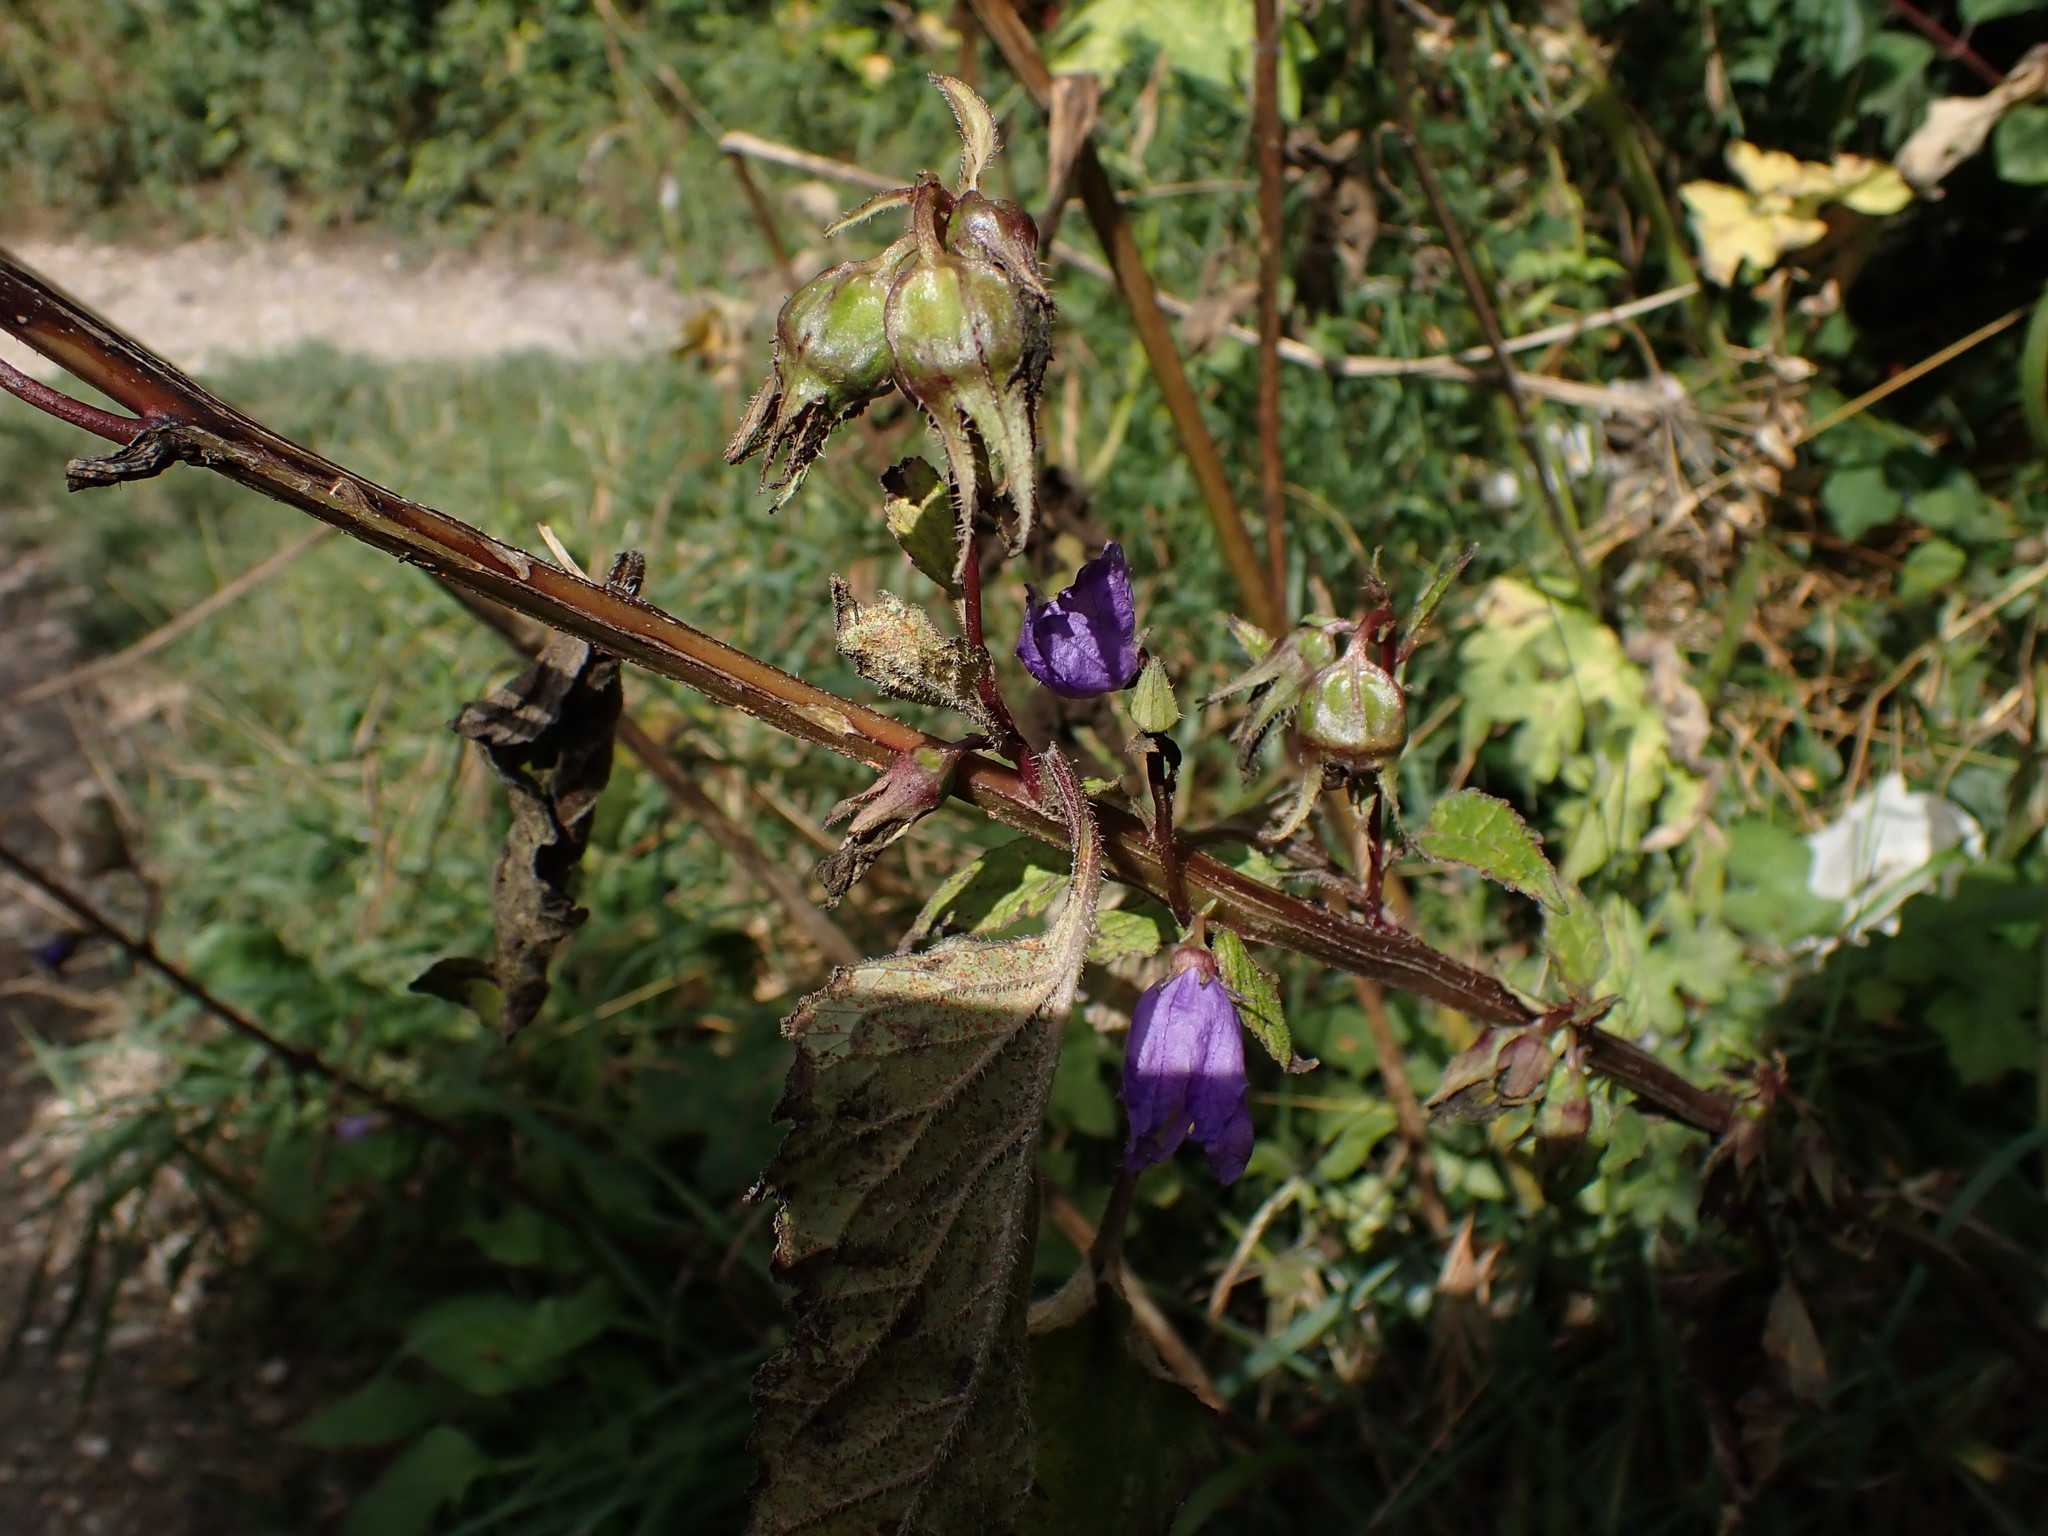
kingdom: Plantae
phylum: Tracheophyta
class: Magnoliopsida
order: Asterales
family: Campanulaceae
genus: Campanula
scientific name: Campanula trachelium
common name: Nettle-leaved bellflower
